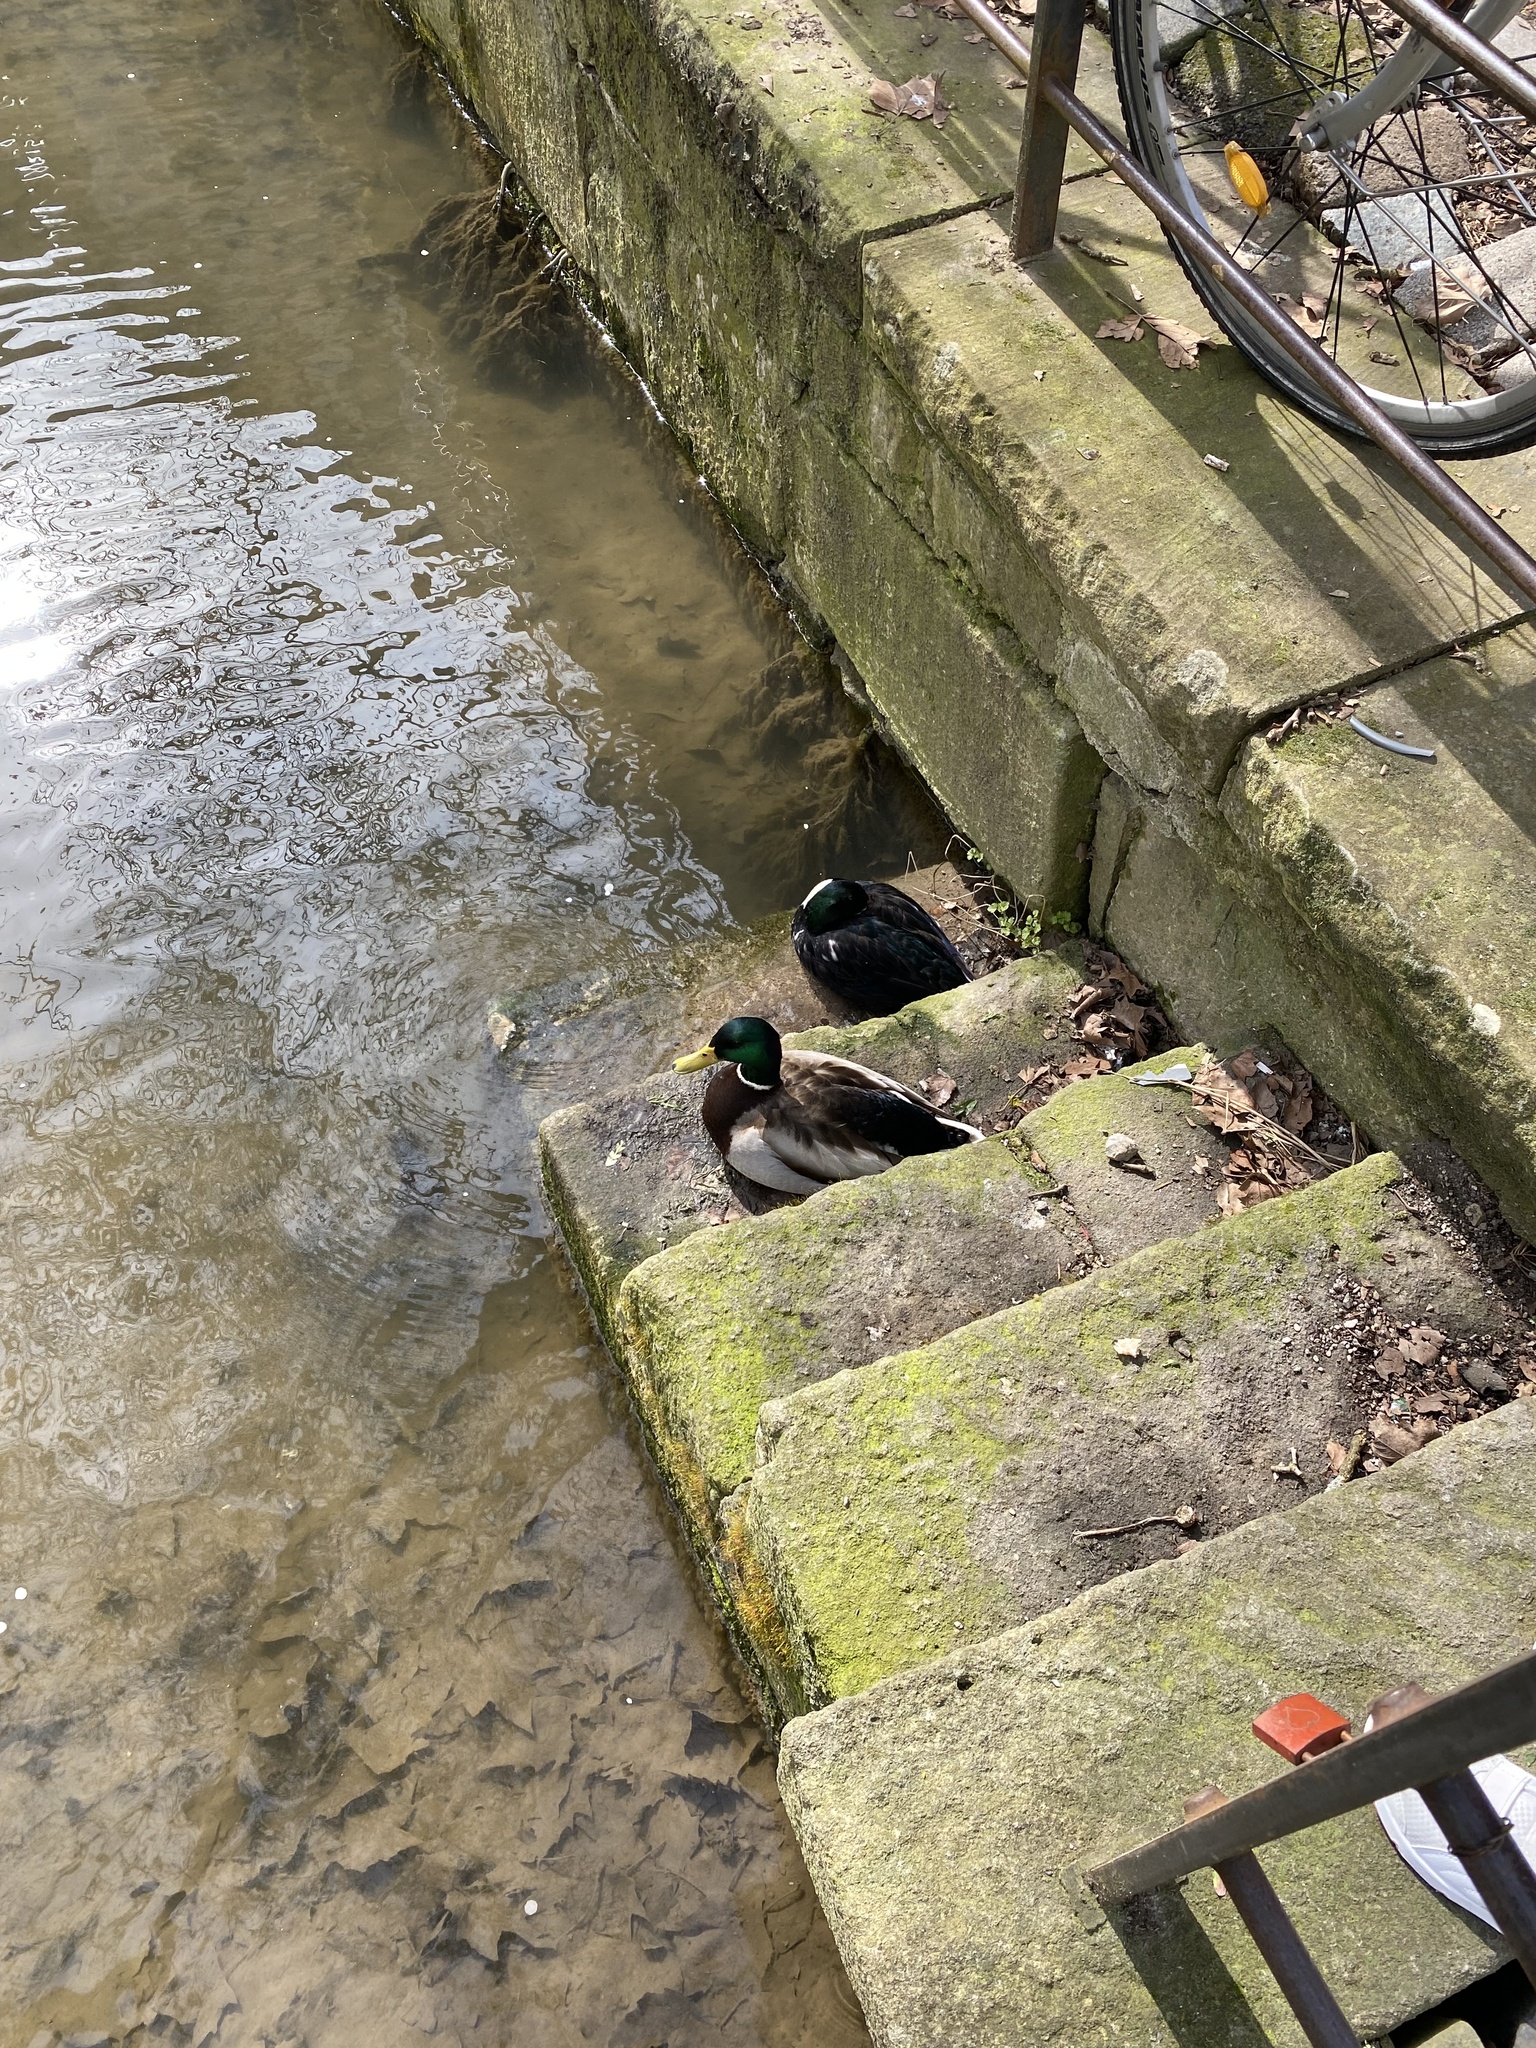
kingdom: Animalia
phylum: Chordata
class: Aves
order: Anseriformes
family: Anatidae
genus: Anas
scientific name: Anas platyrhynchos
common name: Mallard
